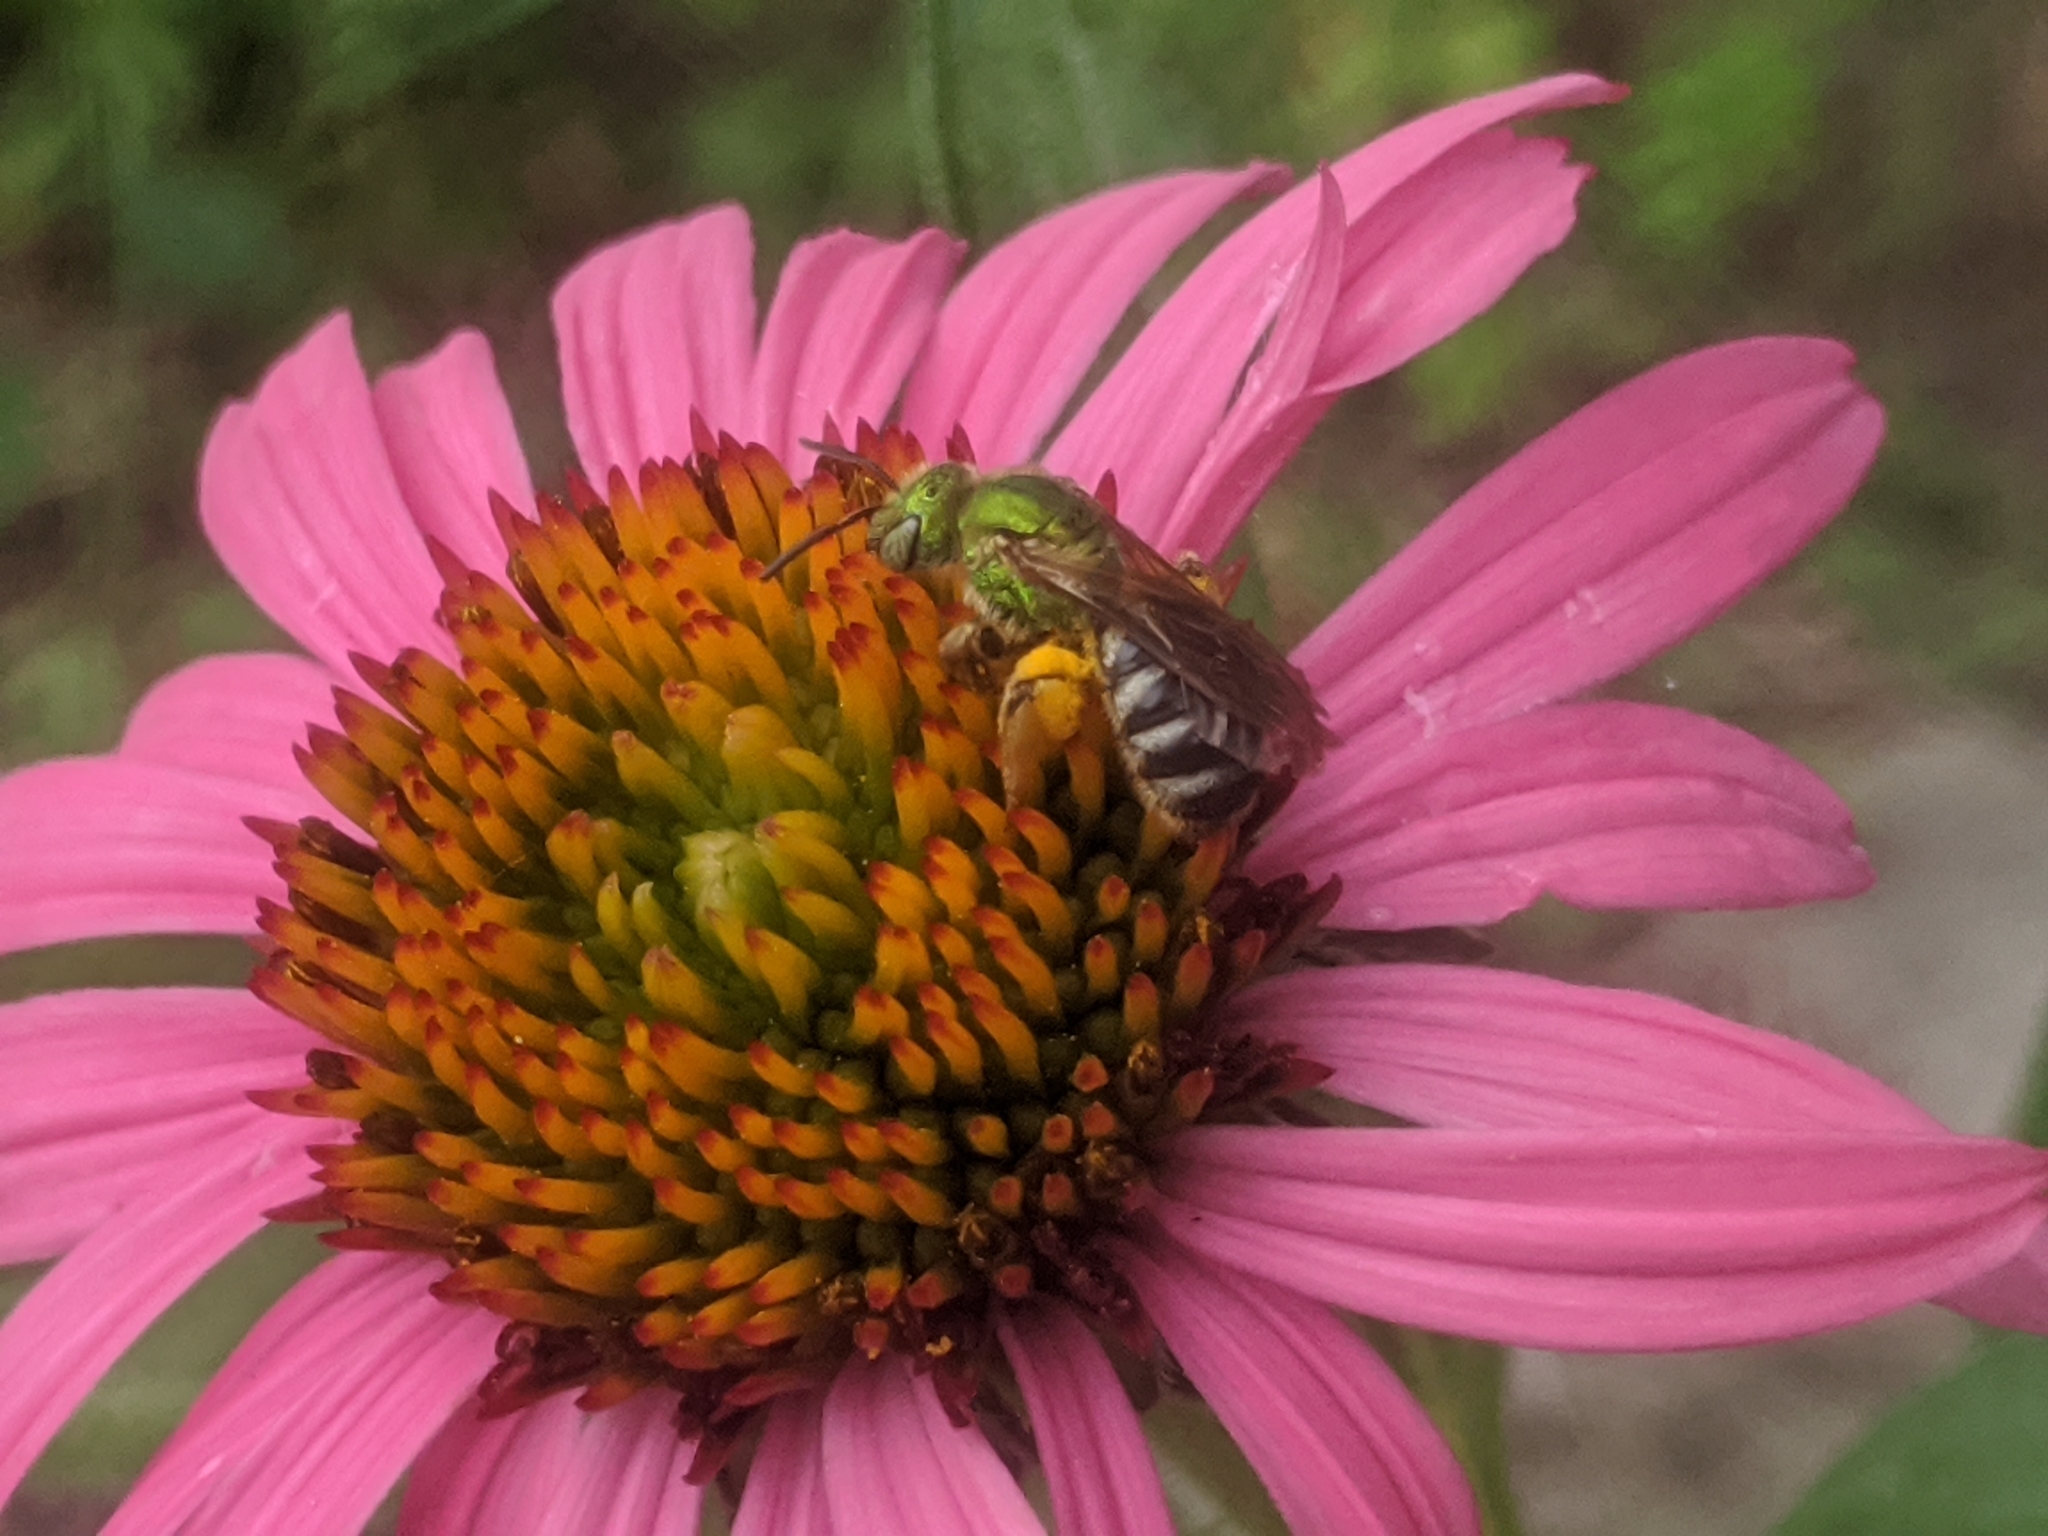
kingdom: Animalia
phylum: Arthropoda
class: Insecta
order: Hymenoptera
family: Halictidae
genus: Agapostemon
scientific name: Agapostemon virescens
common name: Bicolored striped sweat bee
